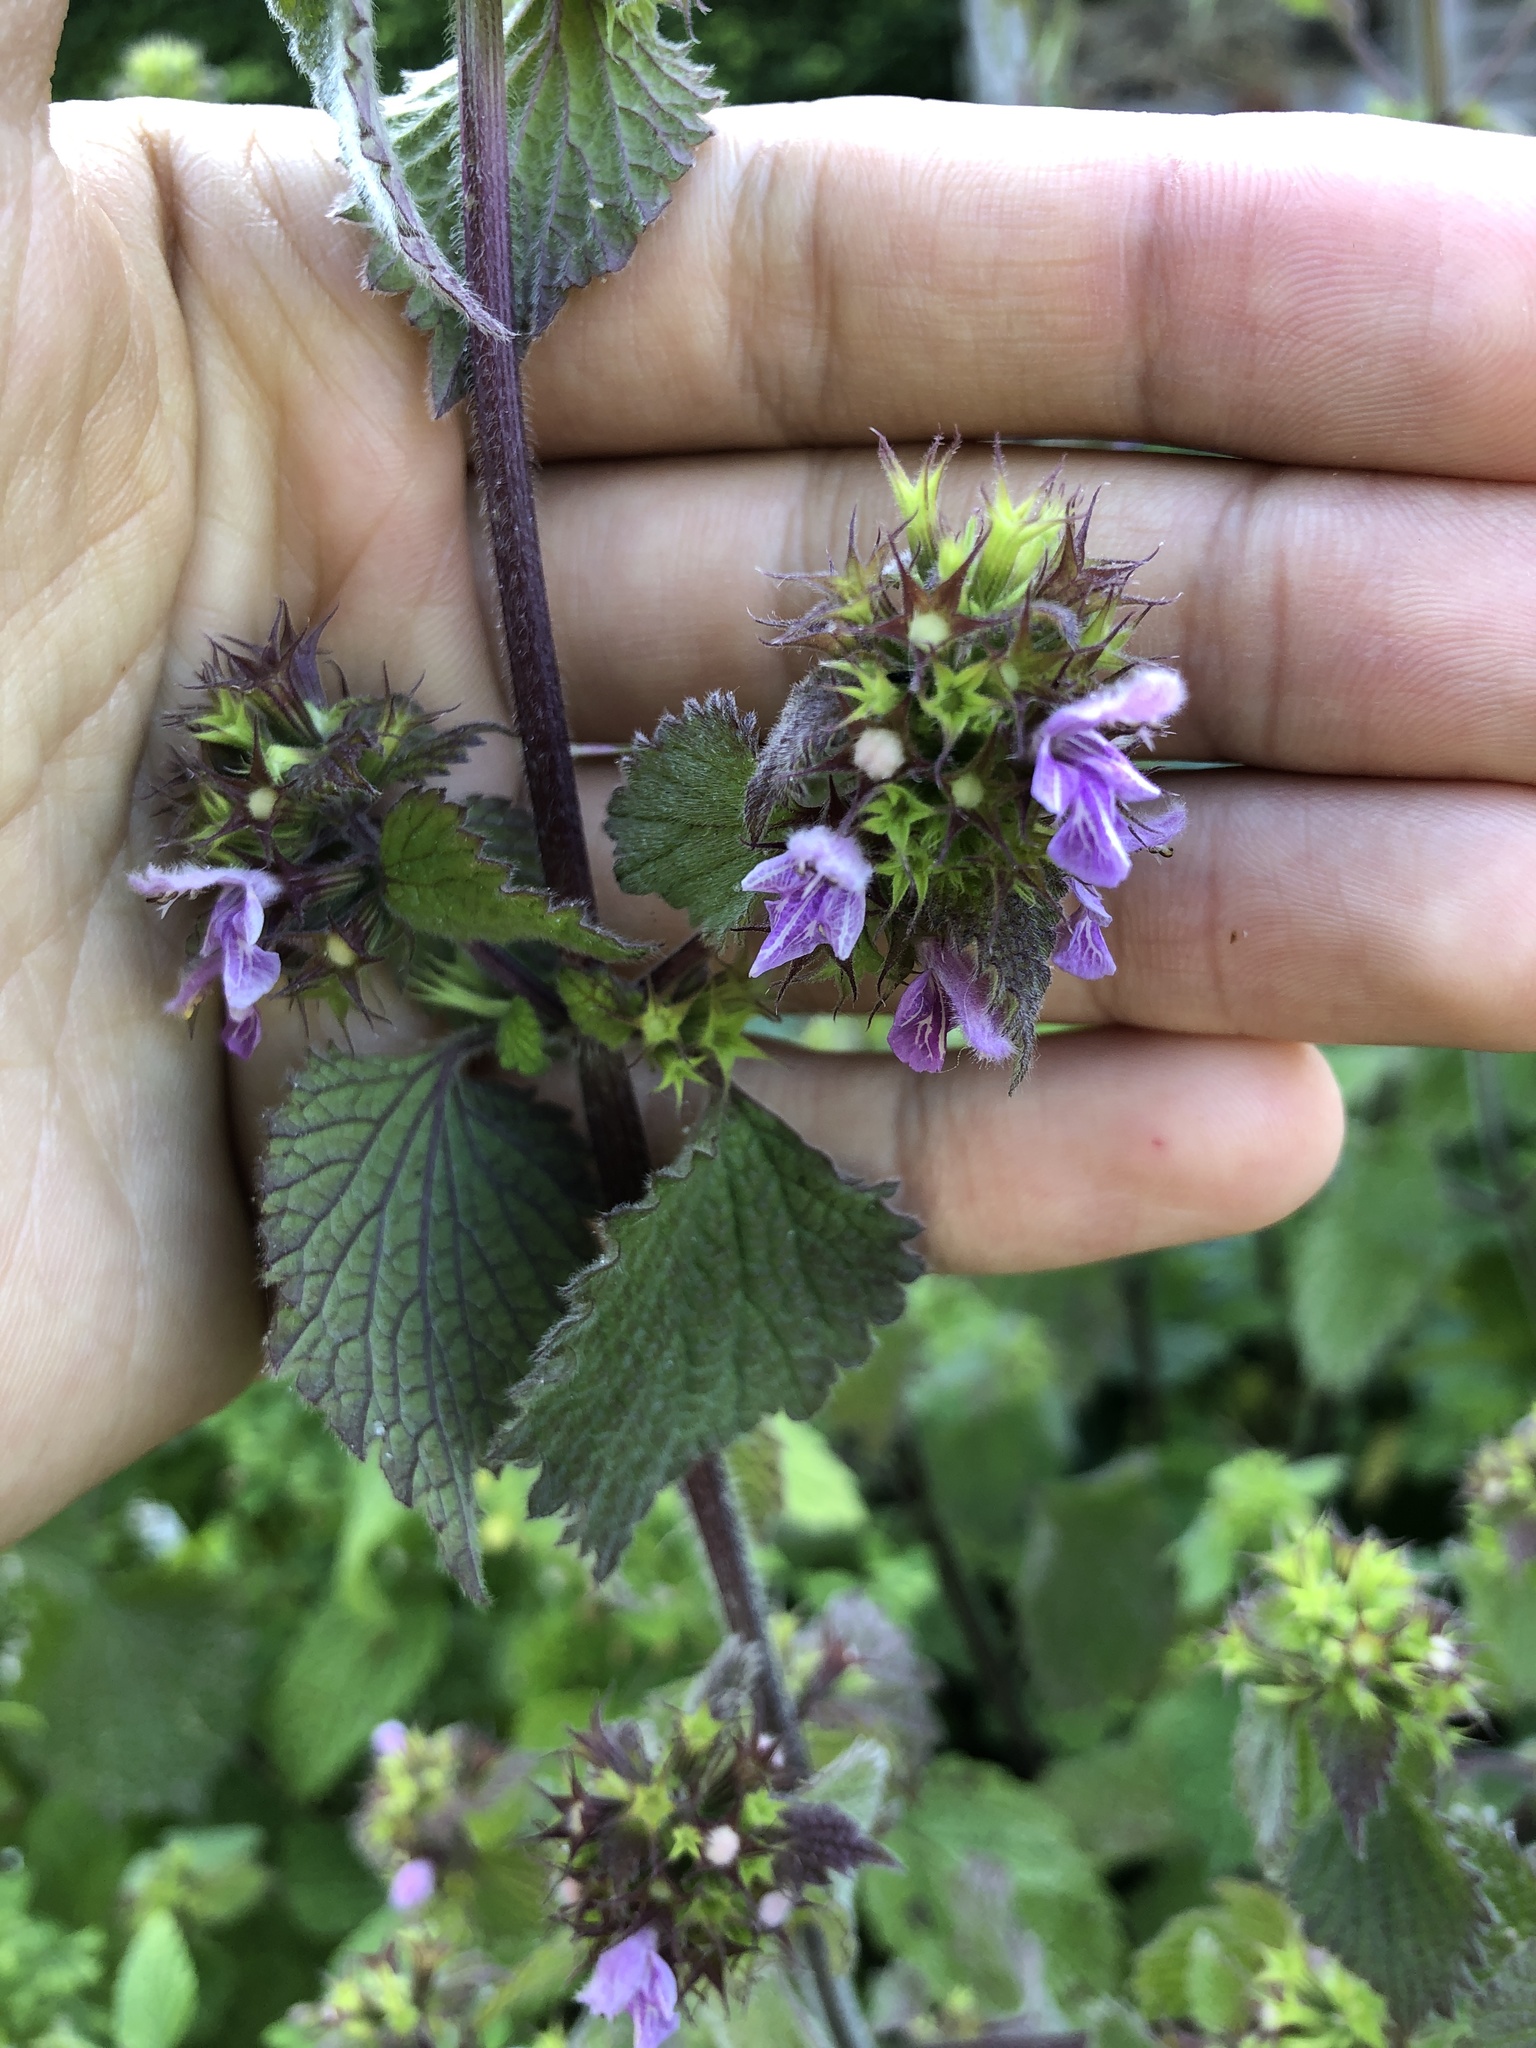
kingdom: Plantae
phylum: Tracheophyta
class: Magnoliopsida
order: Lamiales
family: Lamiaceae
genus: Ballota
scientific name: Ballota nigra
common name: Black horehound
